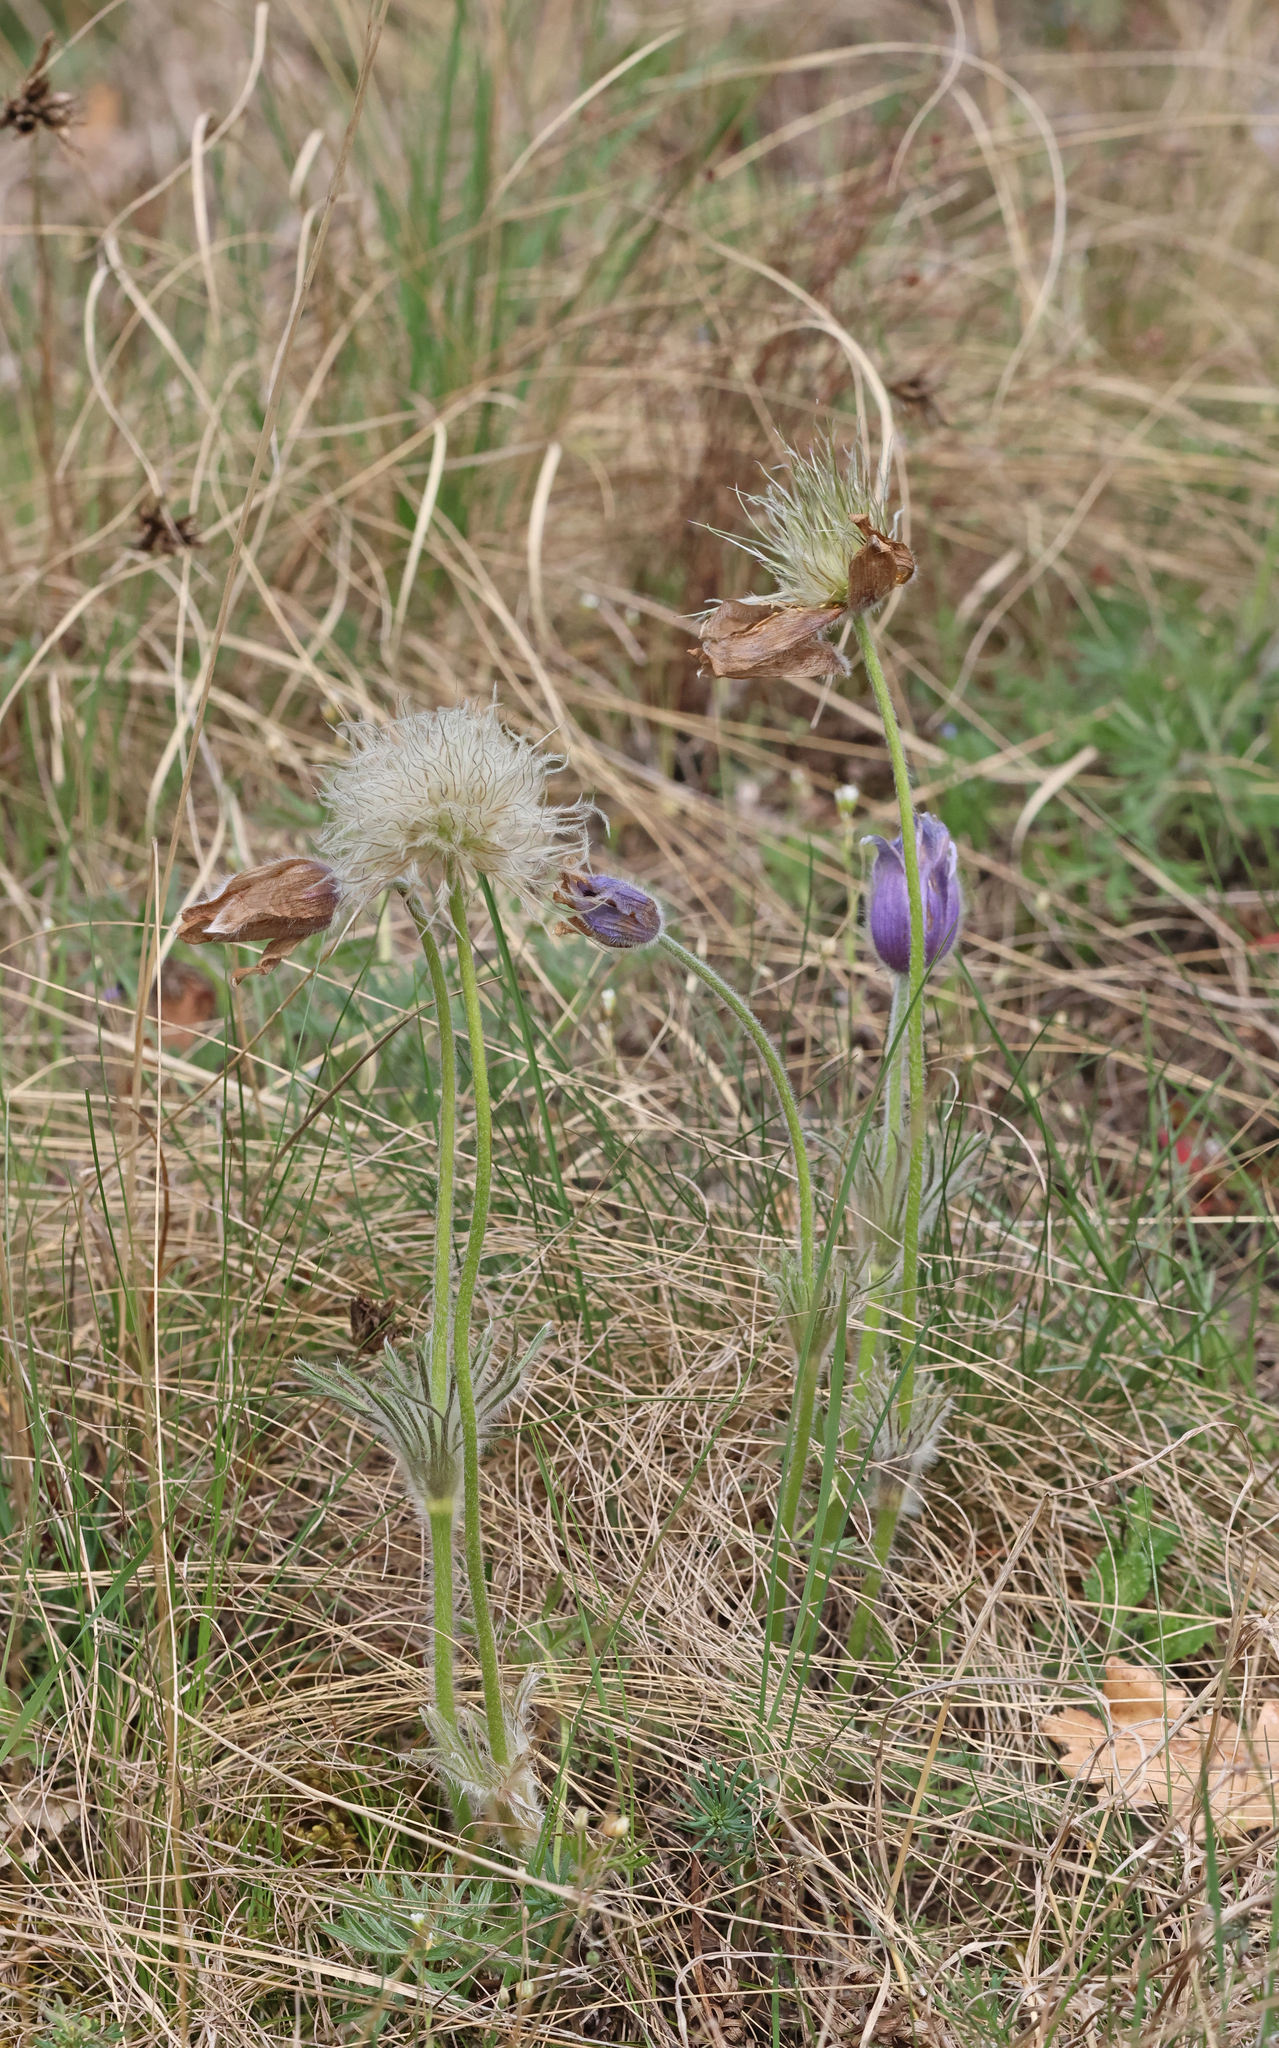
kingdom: Plantae
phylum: Tracheophyta
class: Magnoliopsida
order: Ranunculales
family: Ranunculaceae
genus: Pulsatilla
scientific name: Pulsatilla grandis
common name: Greater pasque flower
